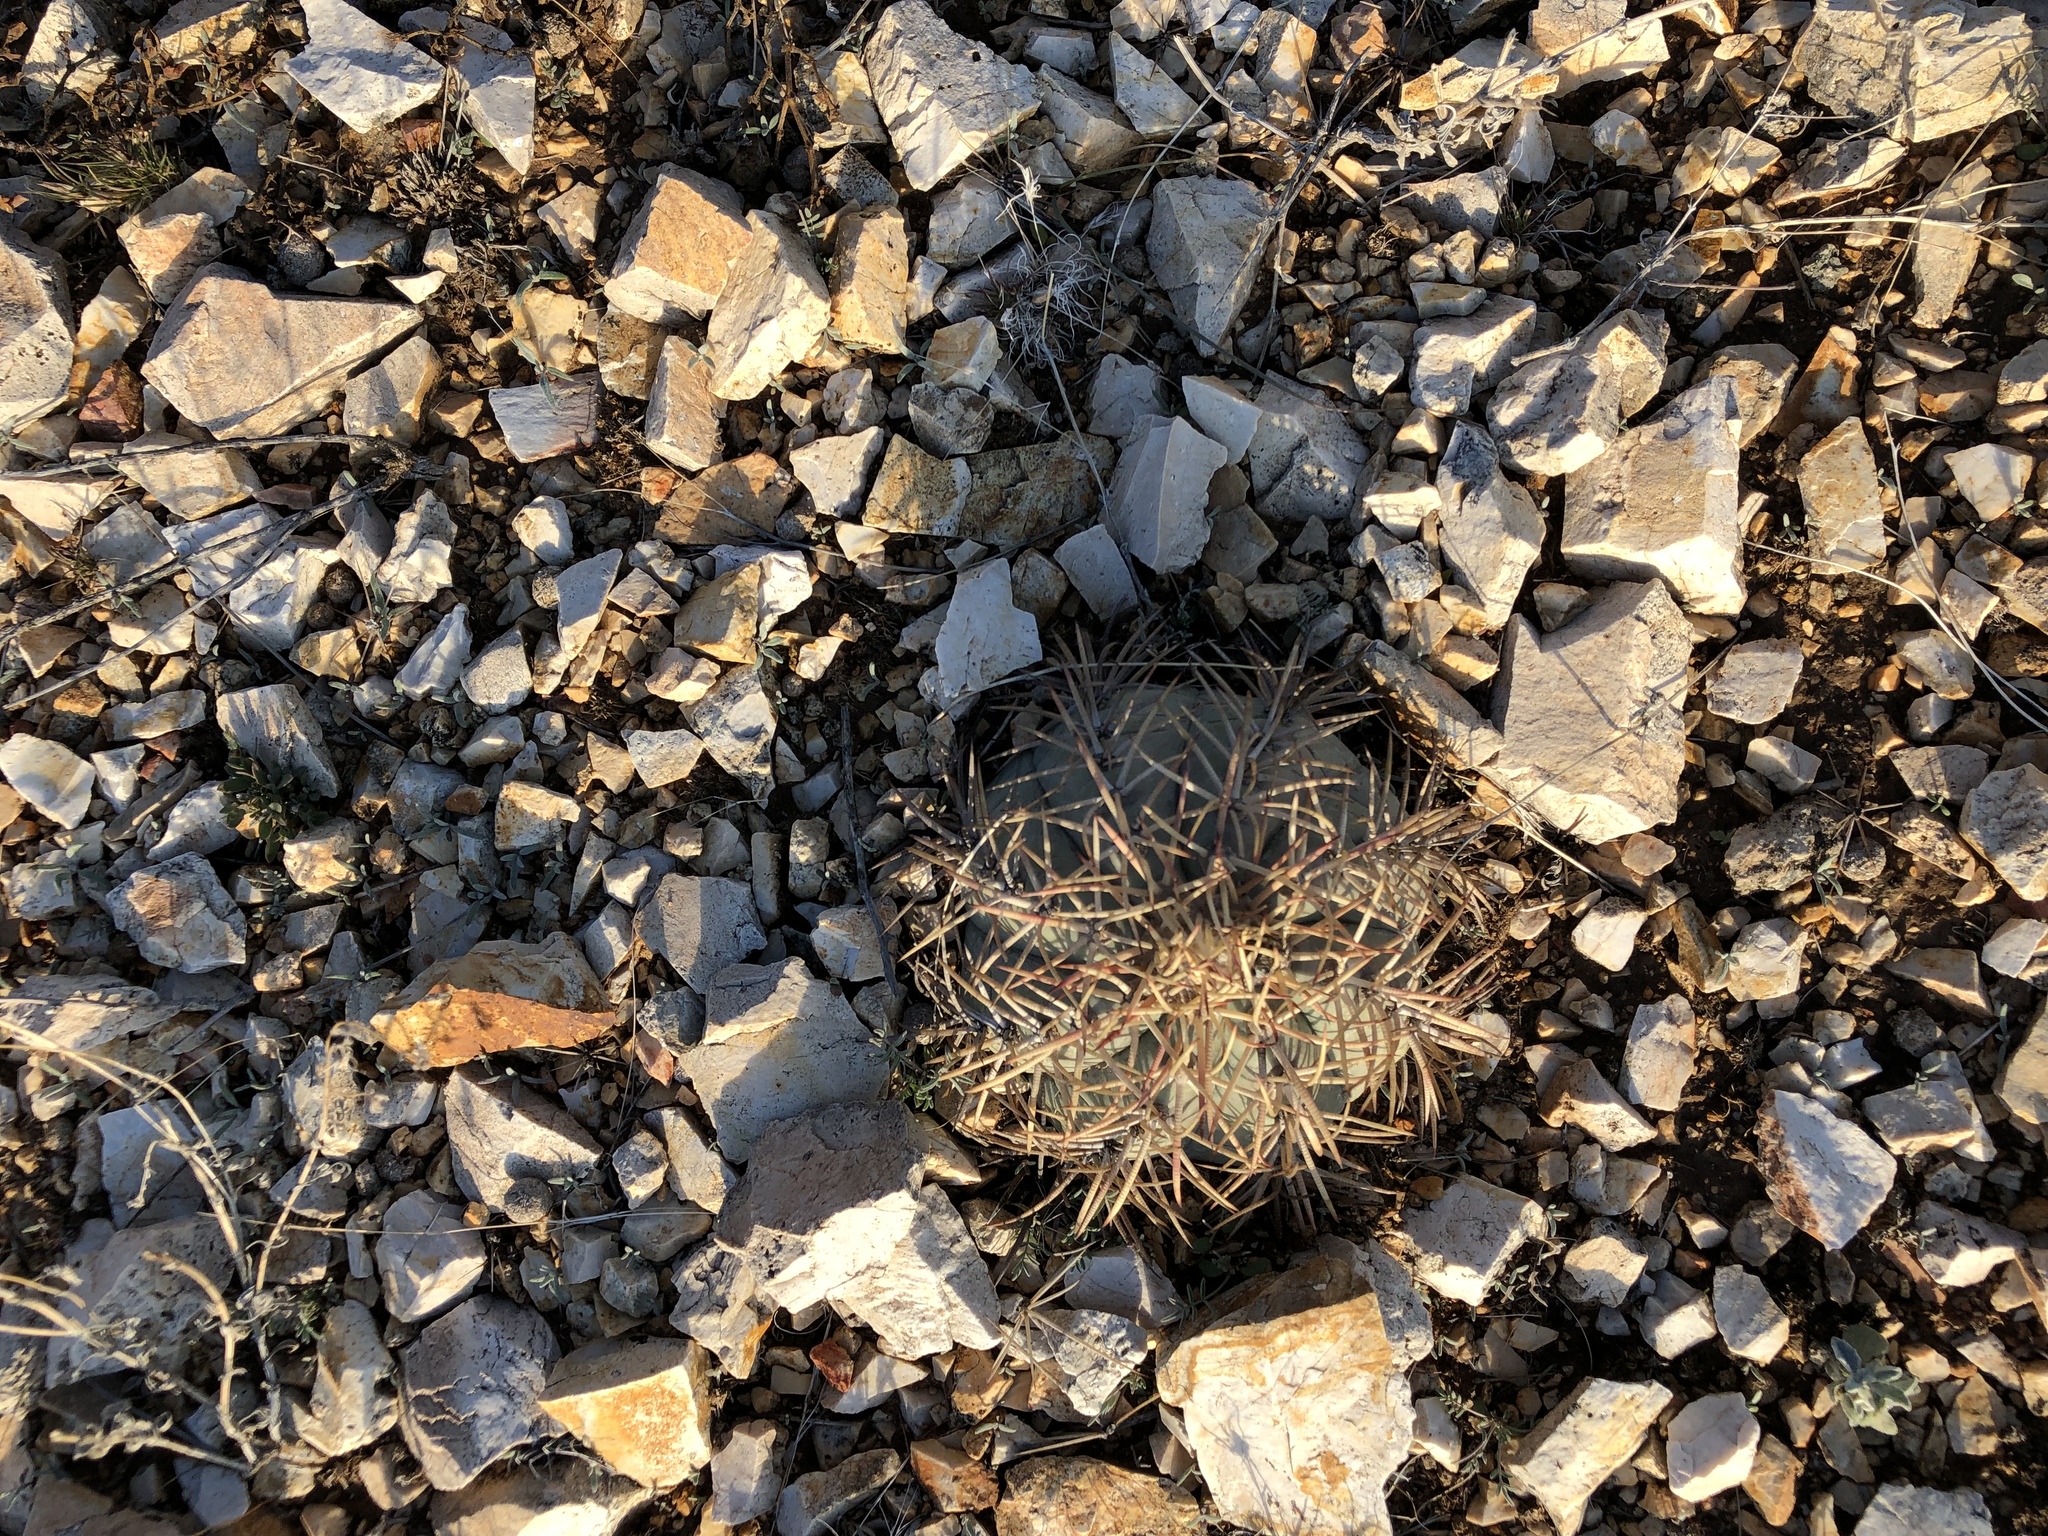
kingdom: Plantae
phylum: Tracheophyta
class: Magnoliopsida
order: Caryophyllales
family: Cactaceae
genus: Echinocactus
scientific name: Echinocactus horizonthalonius
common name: Devilshead
